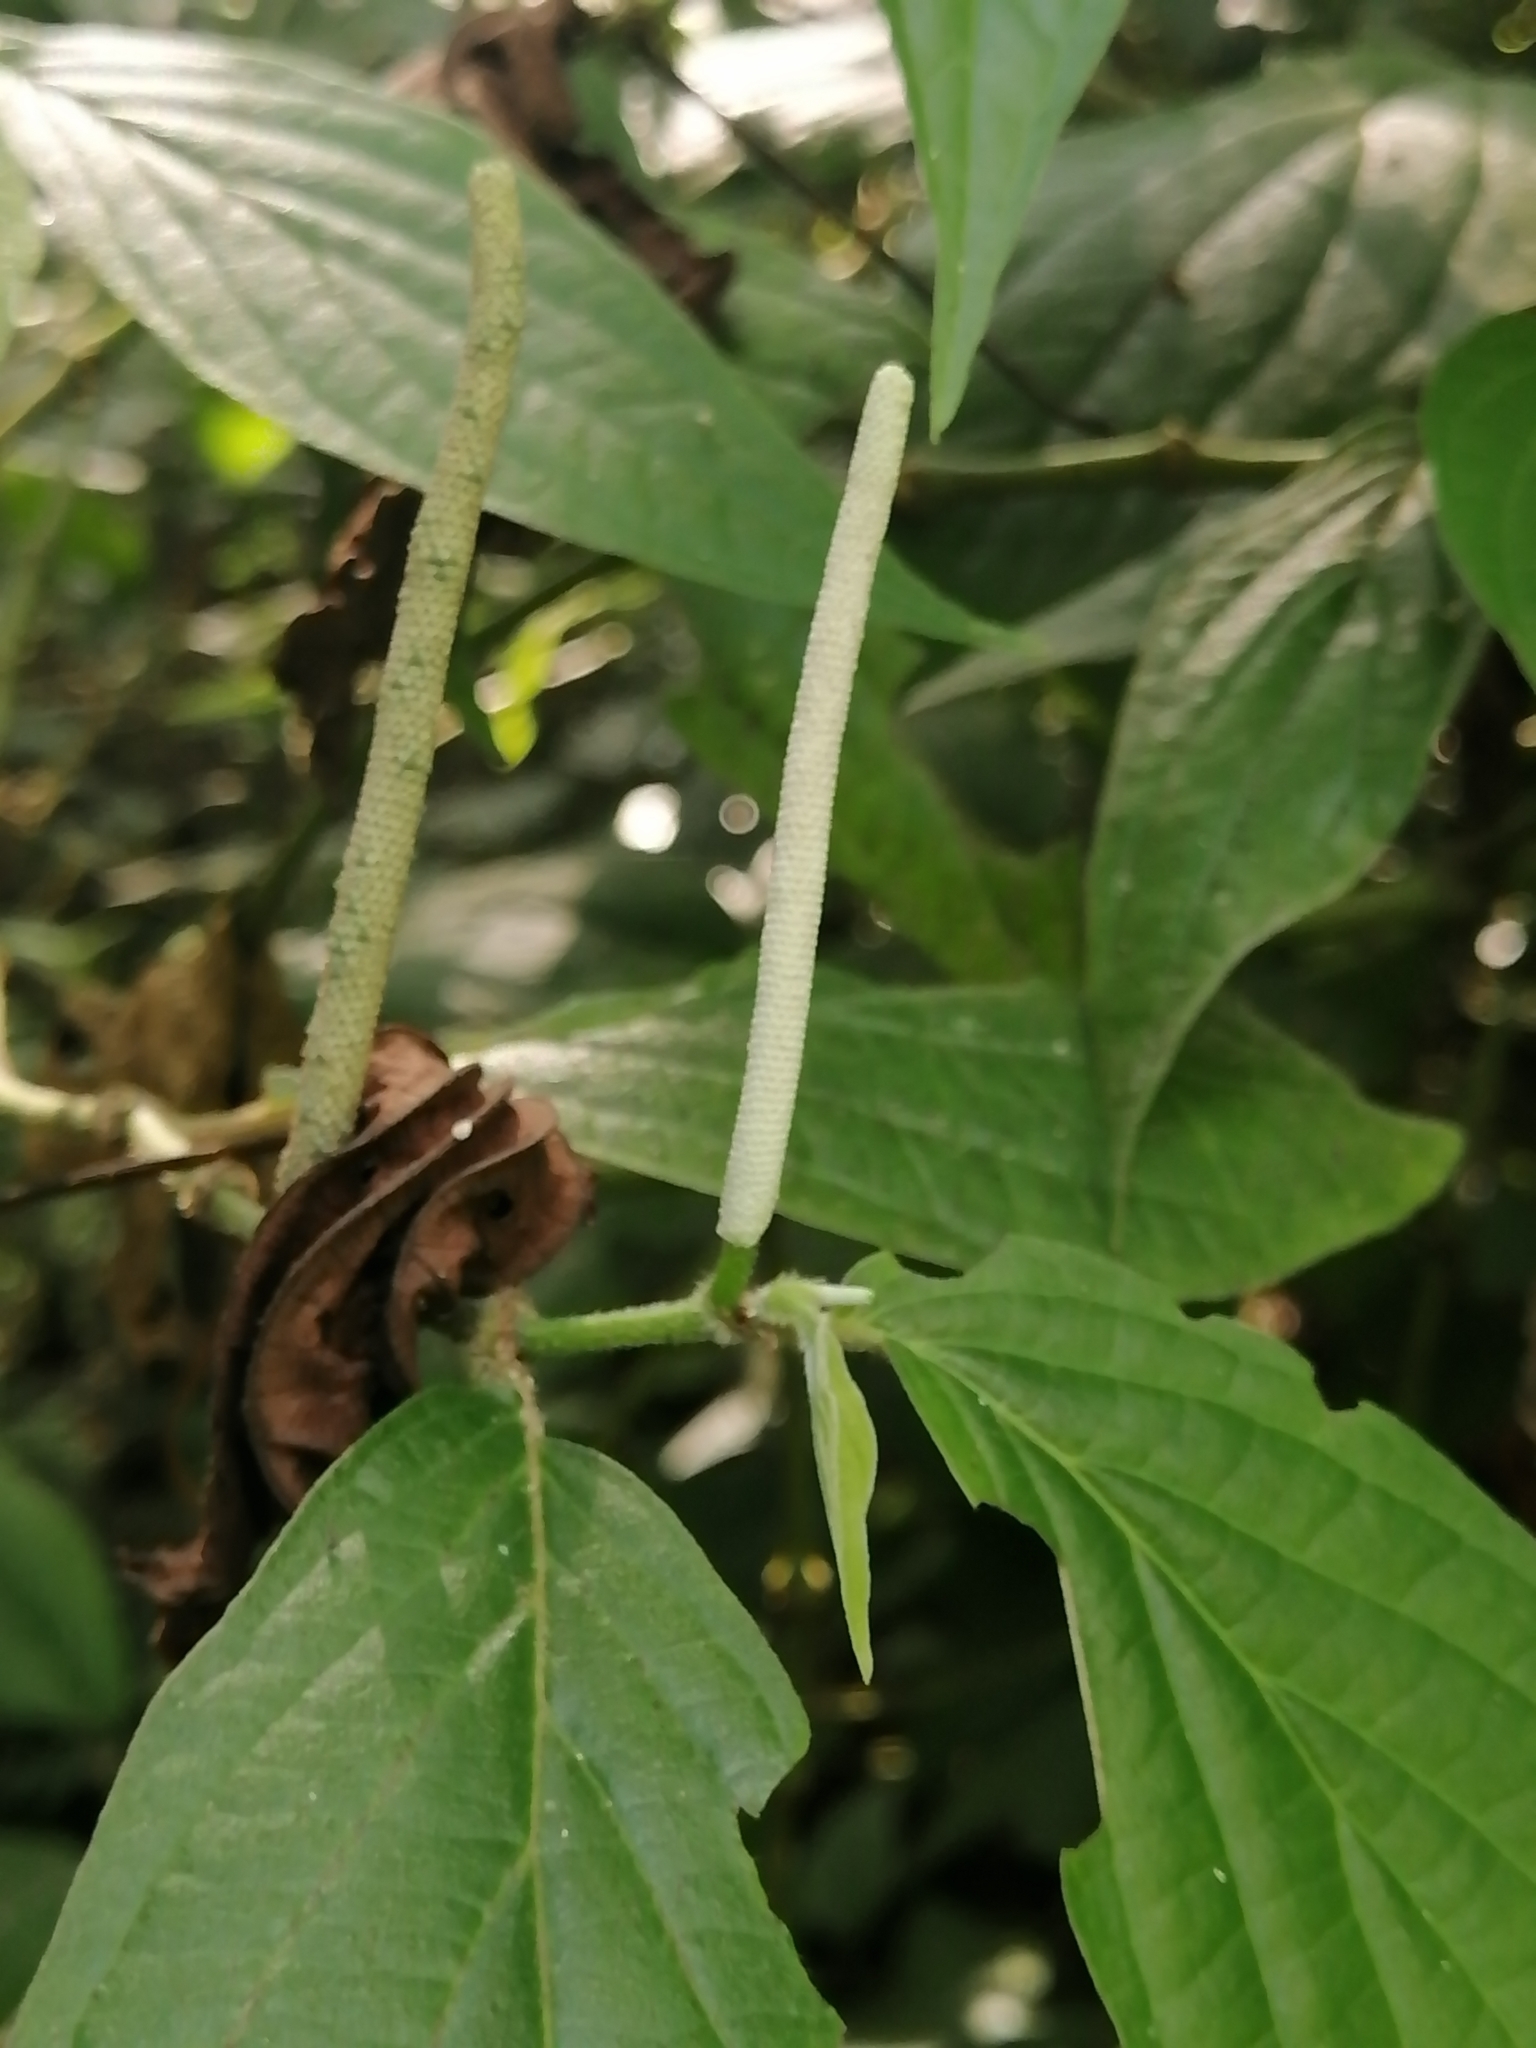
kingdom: Plantae
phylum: Tracheophyta
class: Magnoliopsida
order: Piperales
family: Piperaceae
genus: Piper
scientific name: Piper hispidum
